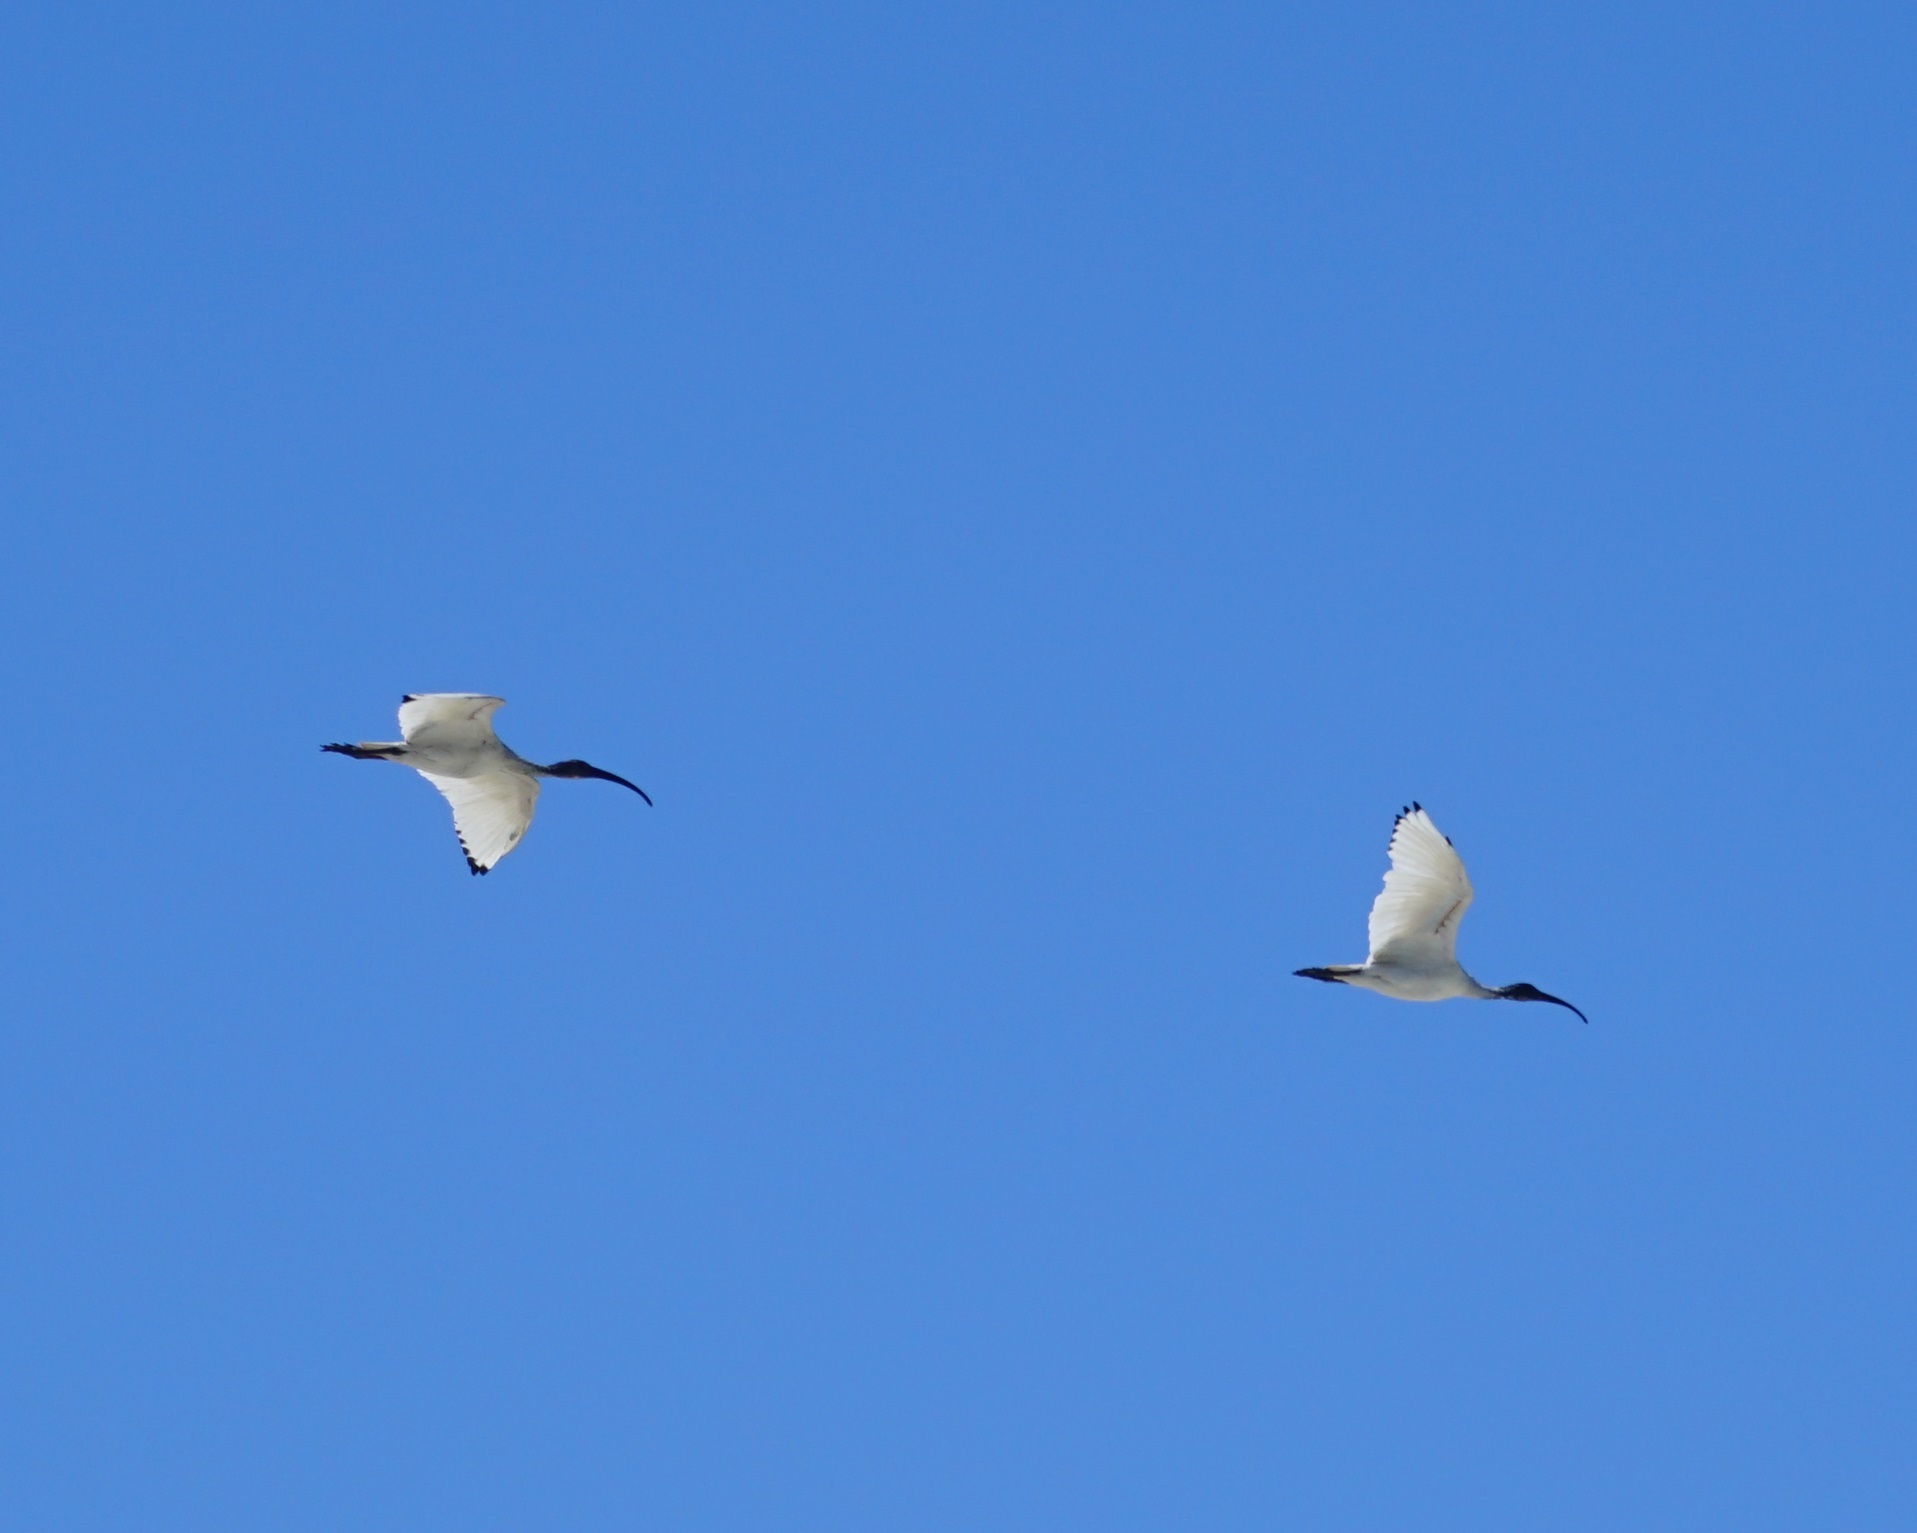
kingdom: Animalia
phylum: Chordata
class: Aves
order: Pelecaniformes
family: Threskiornithidae
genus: Threskiornis
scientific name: Threskiornis molucca
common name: Australian white ibis
